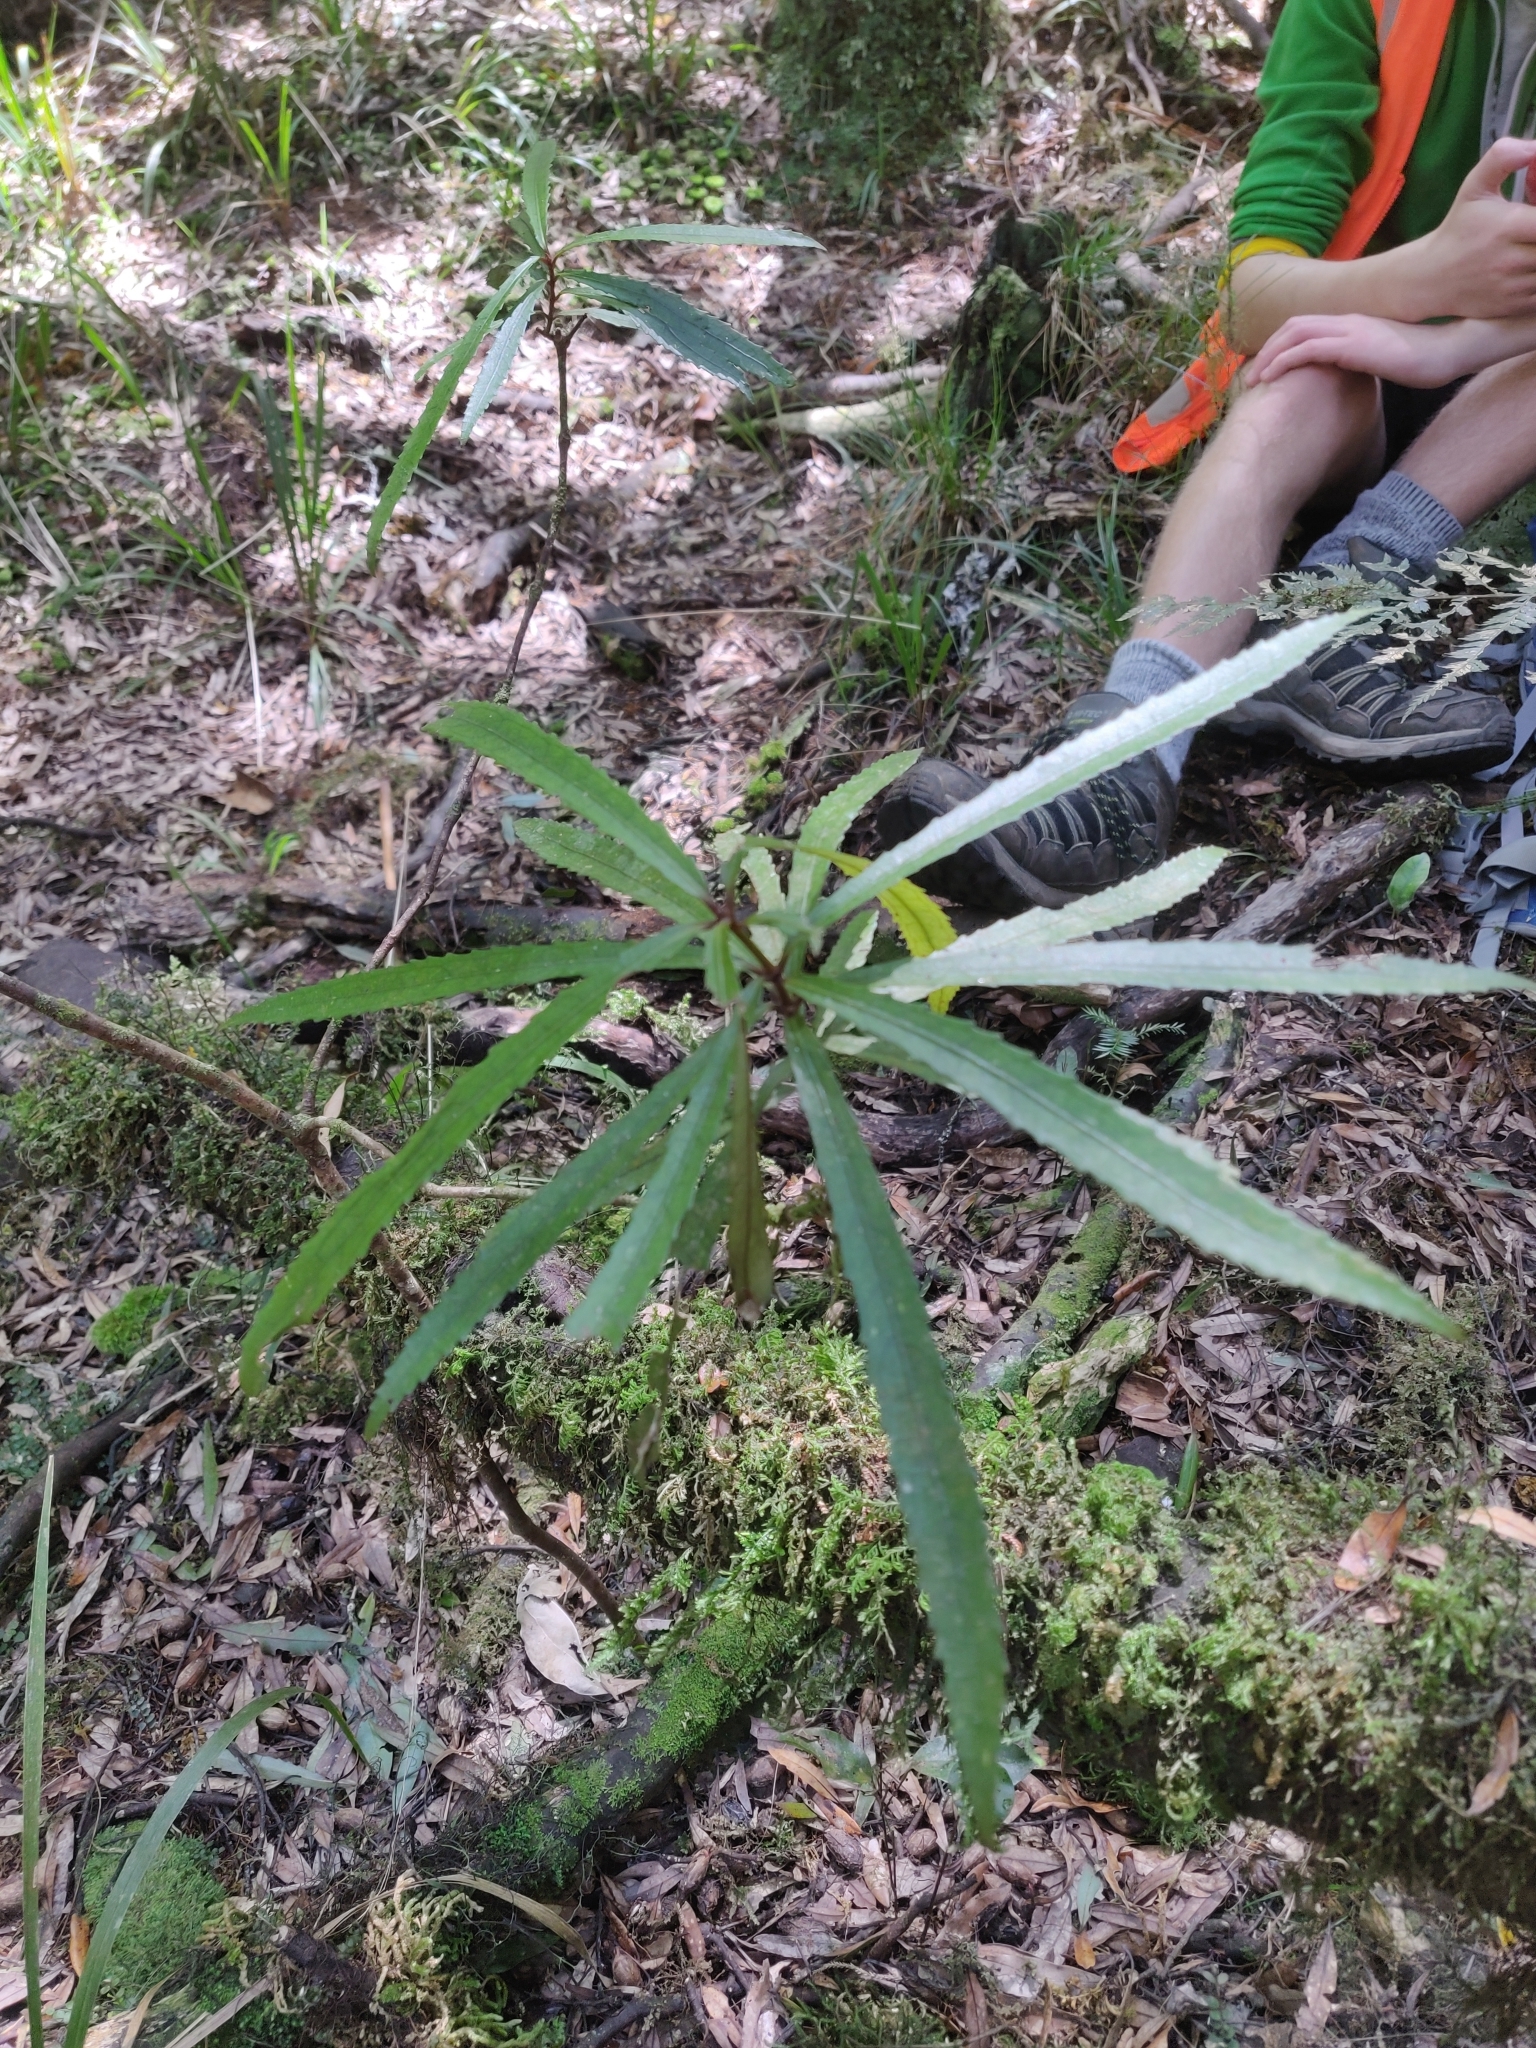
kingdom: Plantae
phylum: Tracheophyta
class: Magnoliopsida
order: Crossosomatales
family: Ixerbaceae
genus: Ixerba
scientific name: Ixerba brexioides
